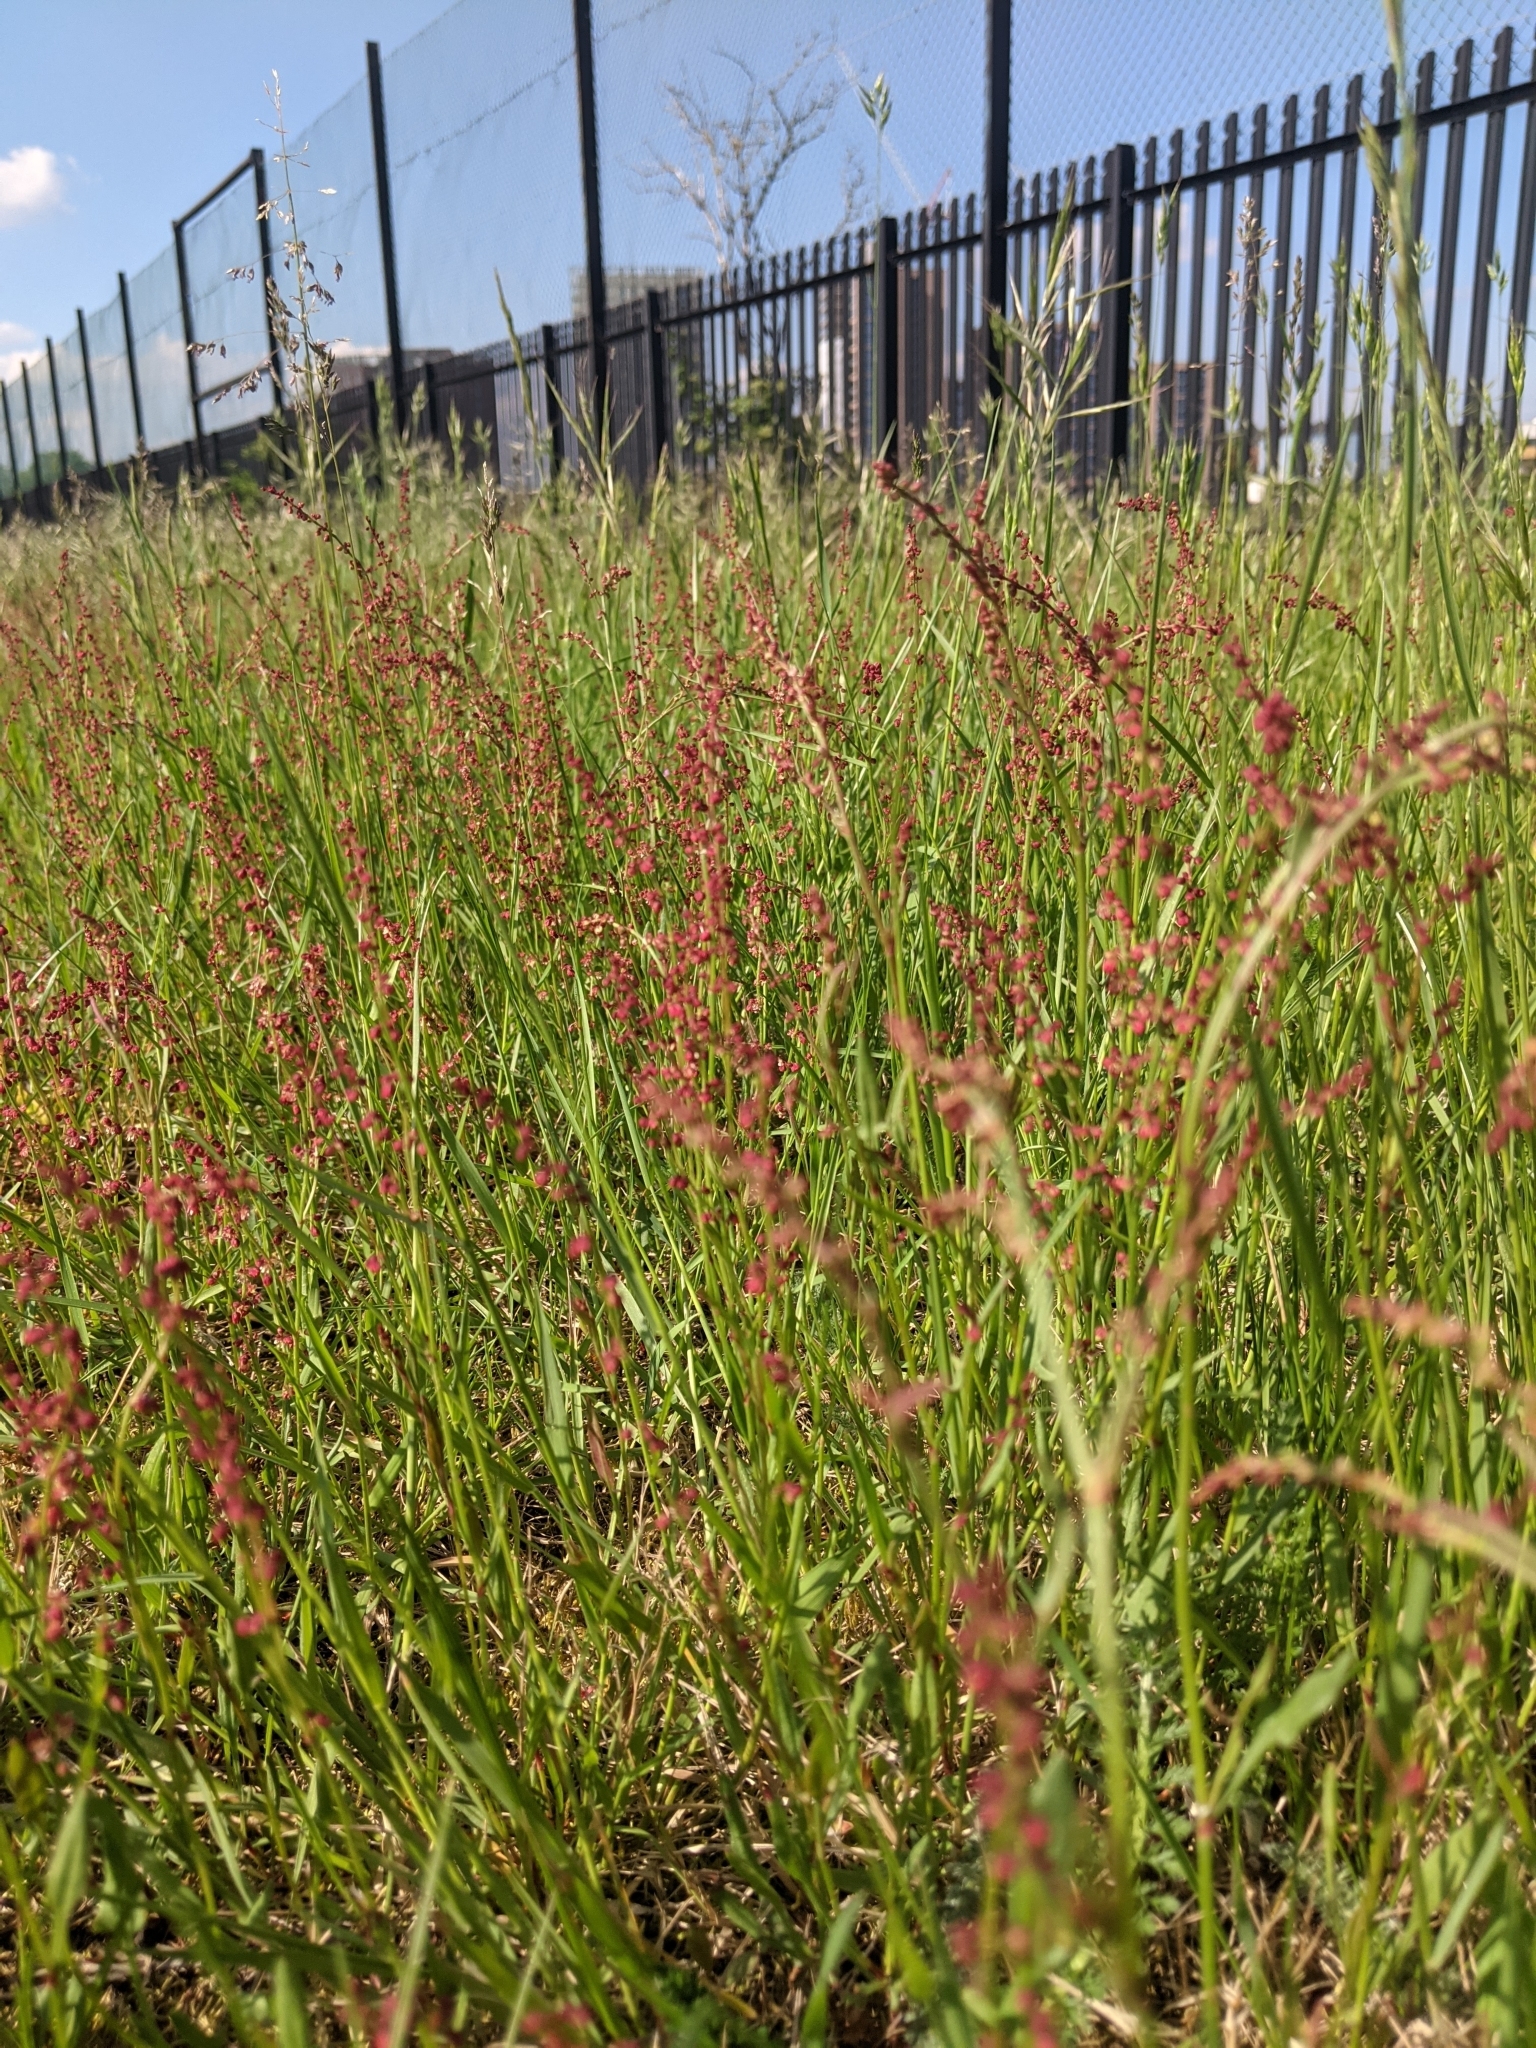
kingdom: Plantae
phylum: Tracheophyta
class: Magnoliopsida
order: Caryophyllales
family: Polygonaceae
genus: Rumex
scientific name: Rumex acetosella
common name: Common sheep sorrel
